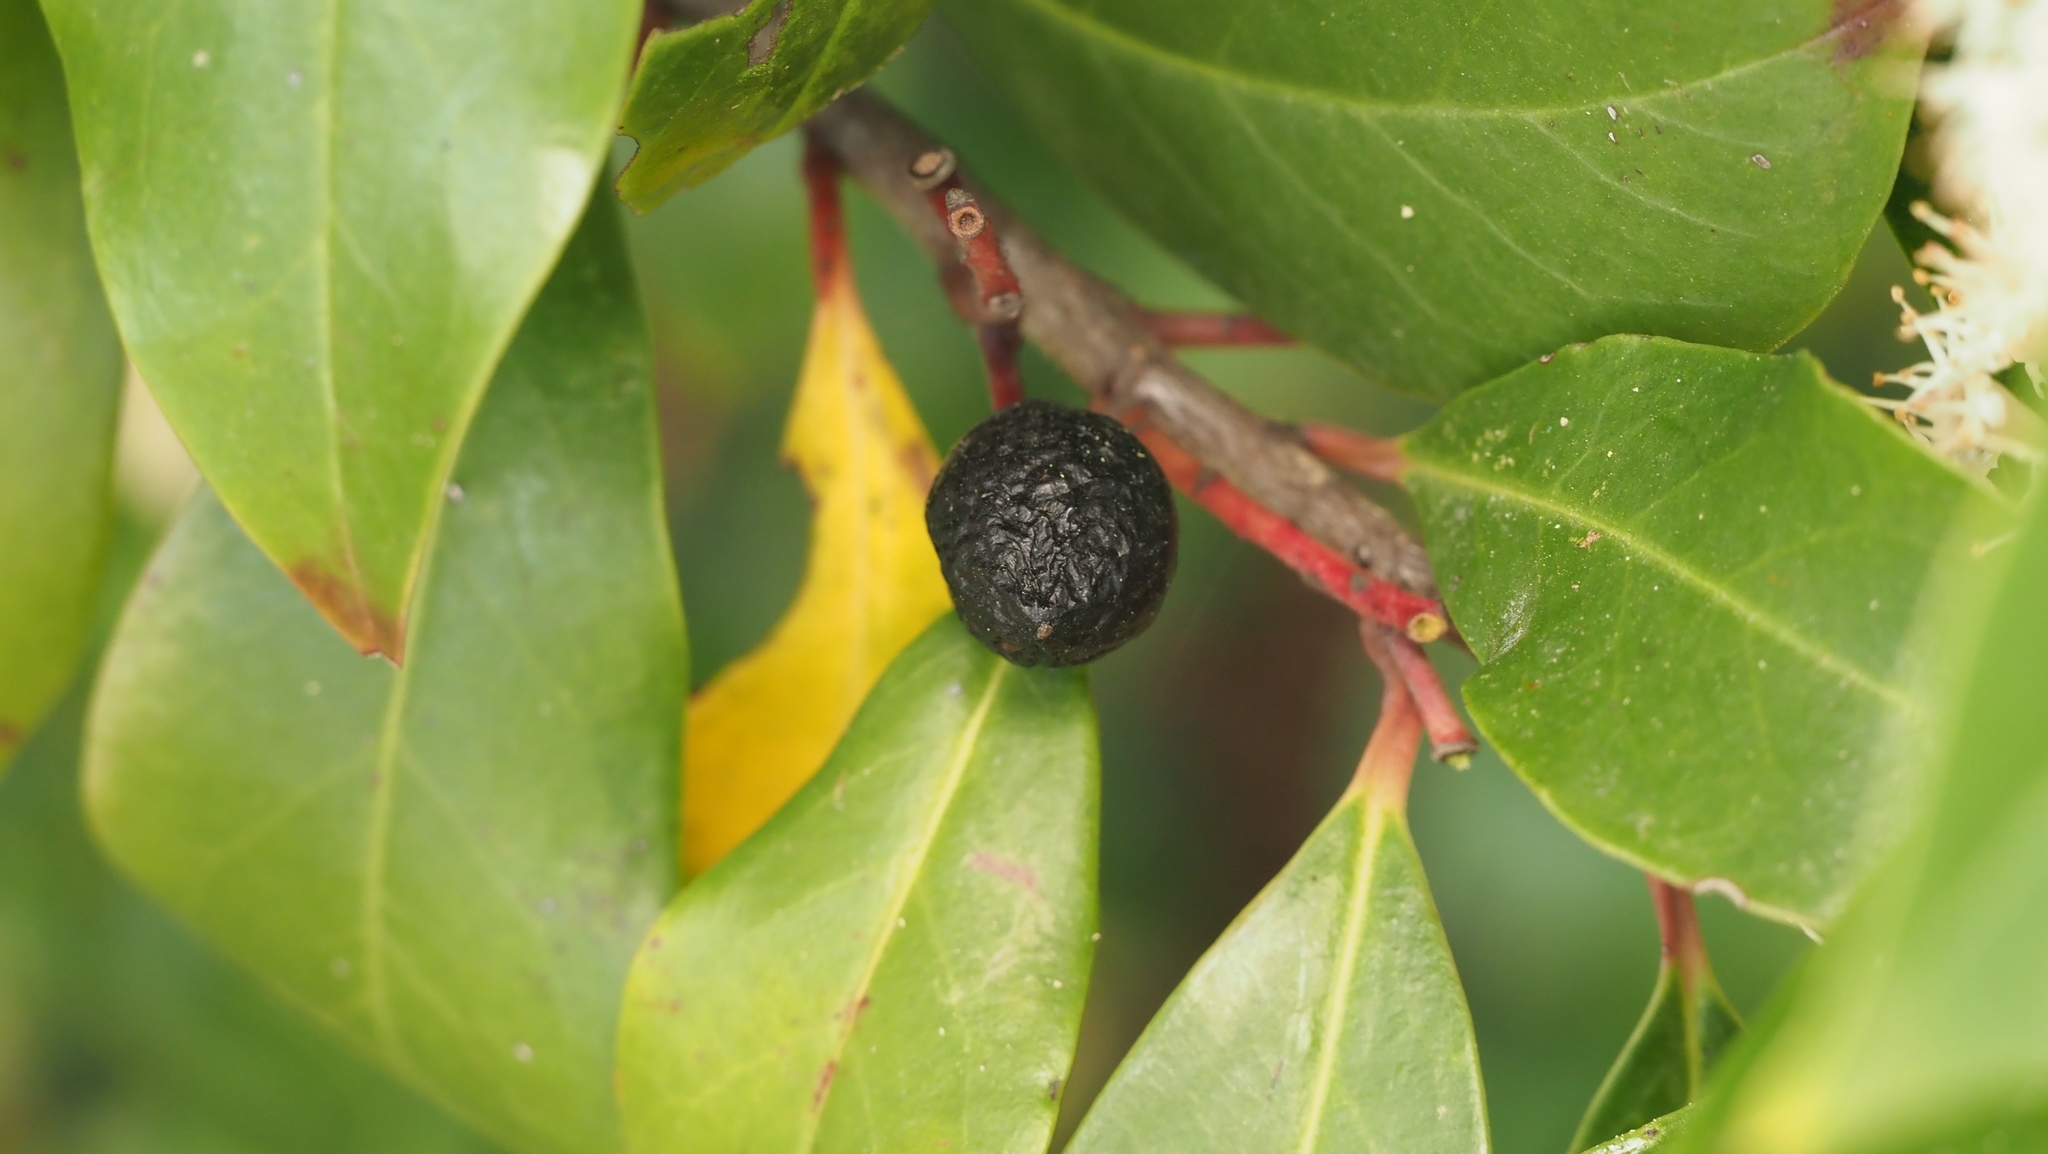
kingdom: Plantae
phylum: Tracheophyta
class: Magnoliopsida
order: Rosales
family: Rosaceae
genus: Prunus
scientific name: Prunus caroliniana
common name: Carolina laurel cherry
